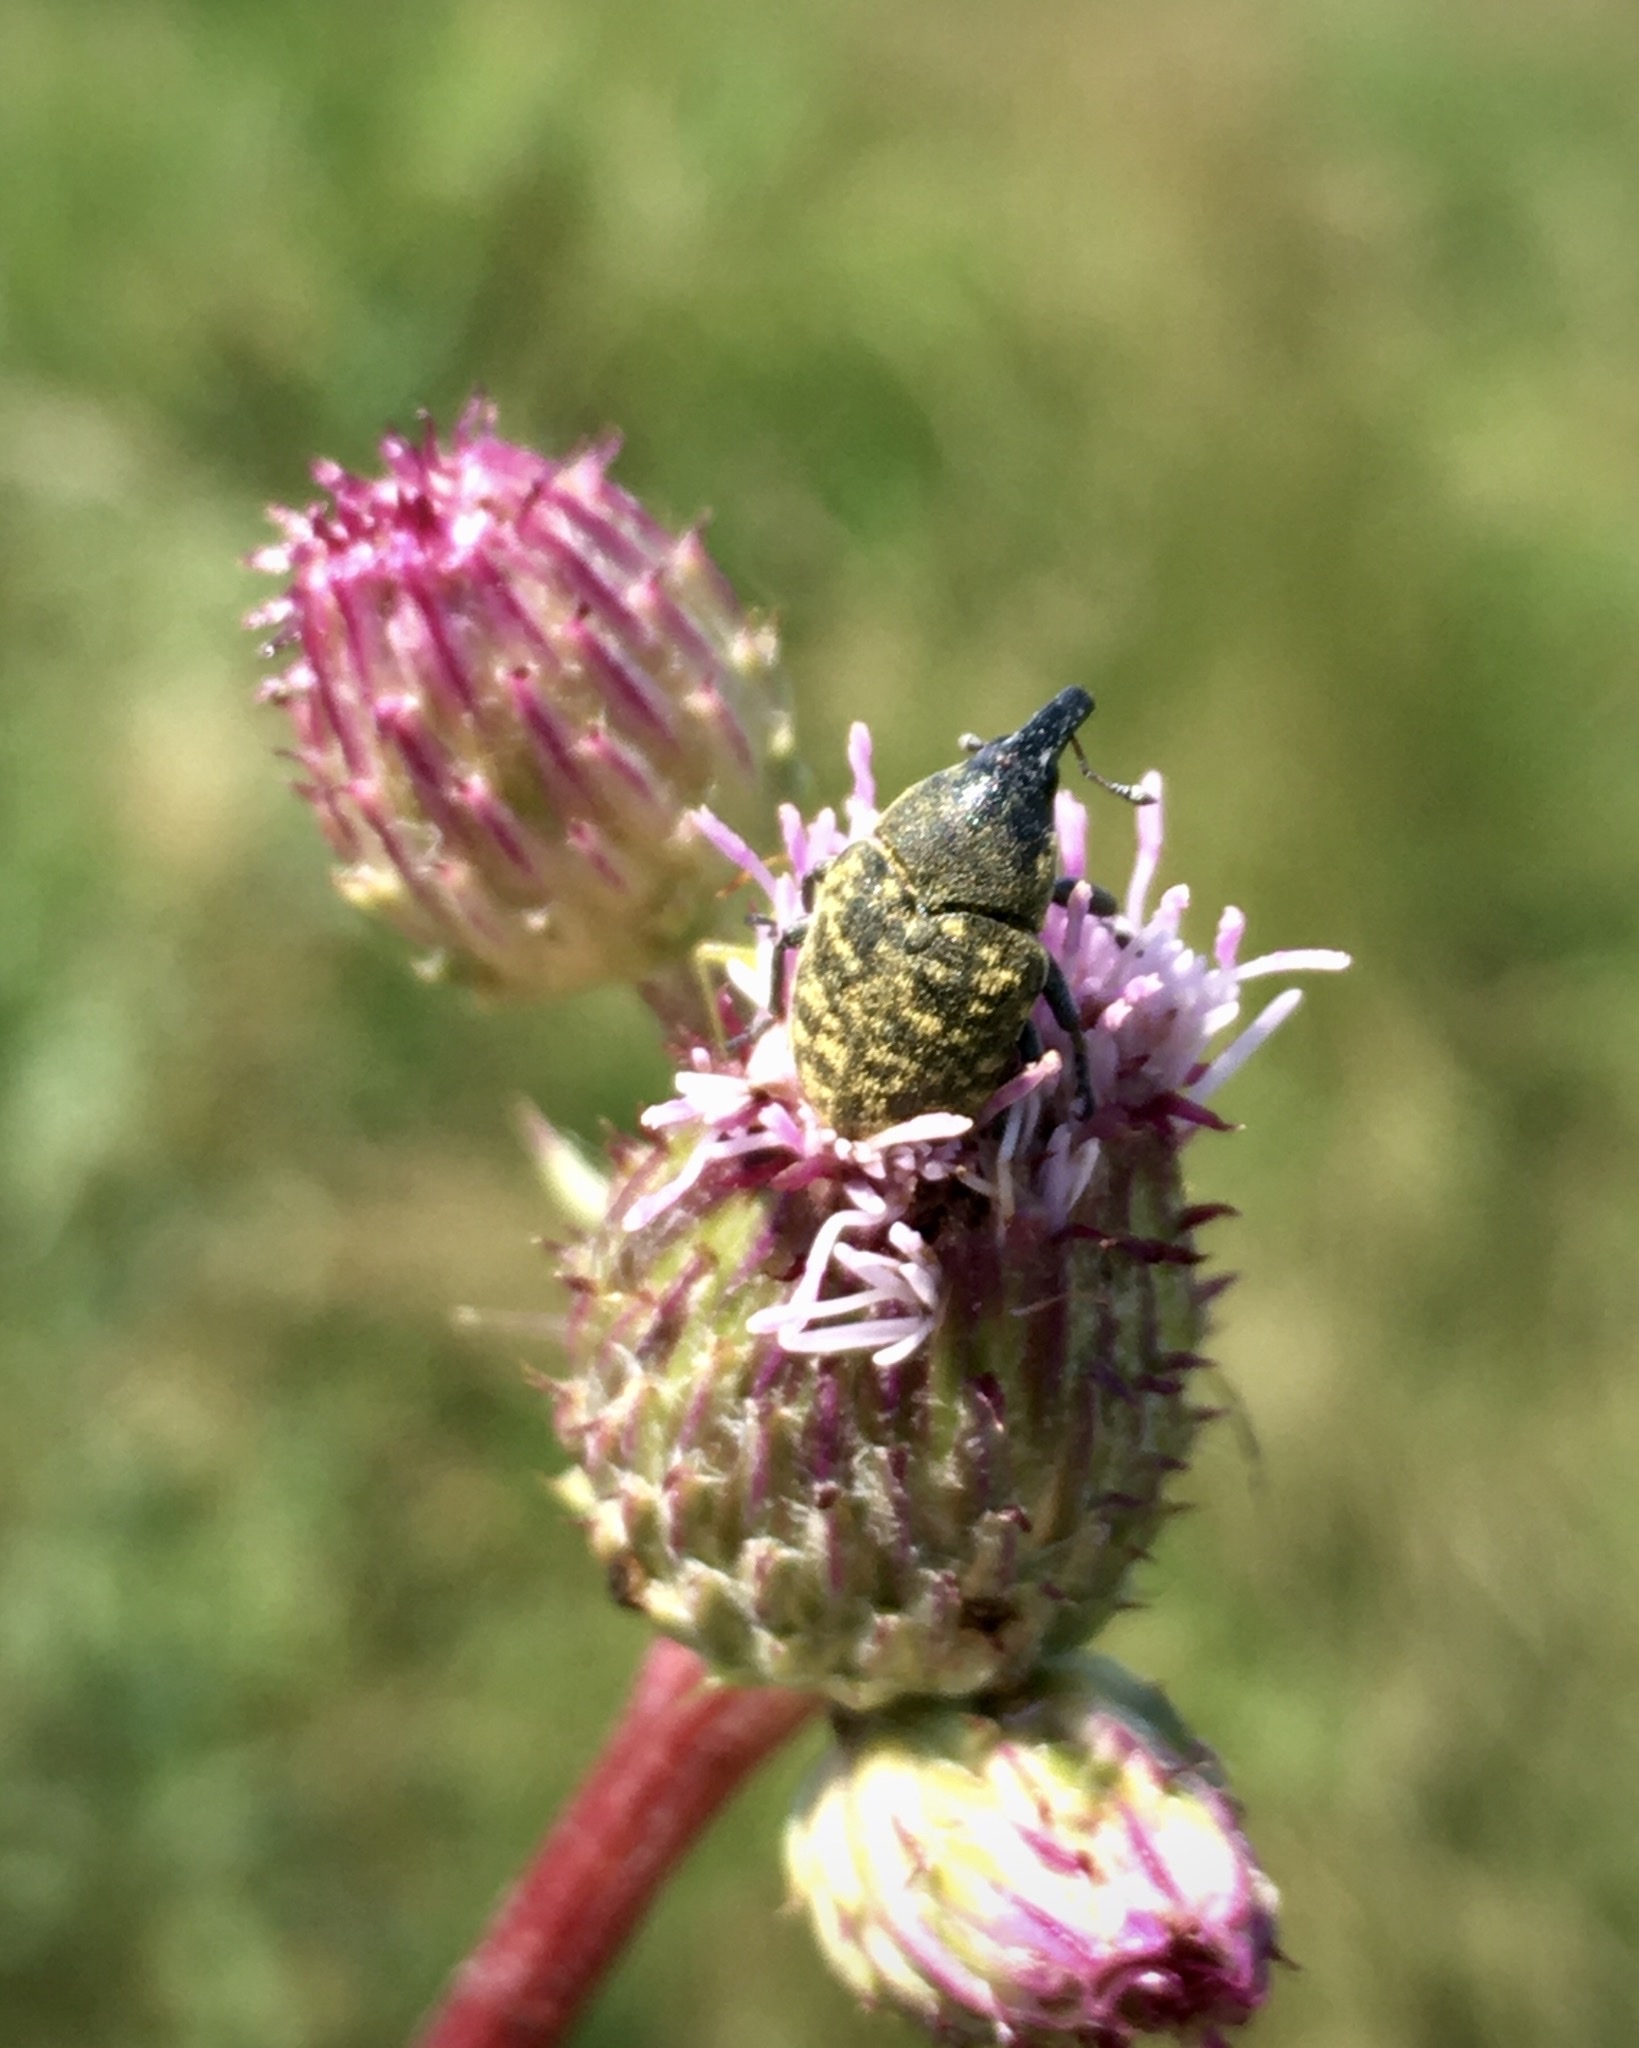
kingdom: Animalia
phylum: Arthropoda
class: Insecta
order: Coleoptera
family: Curculionidae
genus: Larinus
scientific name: Larinus turbinatus
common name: Weevil
